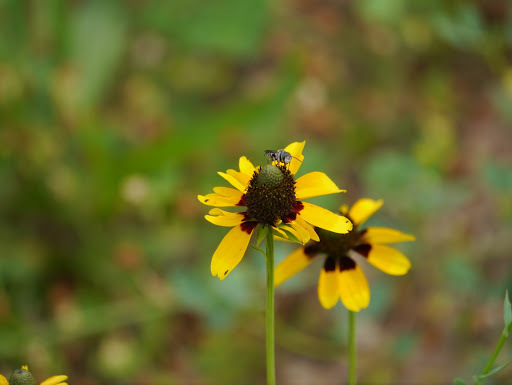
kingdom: Plantae
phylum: Tracheophyta
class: Magnoliopsida
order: Asterales
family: Asteraceae
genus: Rudbeckia
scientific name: Rudbeckia hirta
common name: Black-eyed-susan
